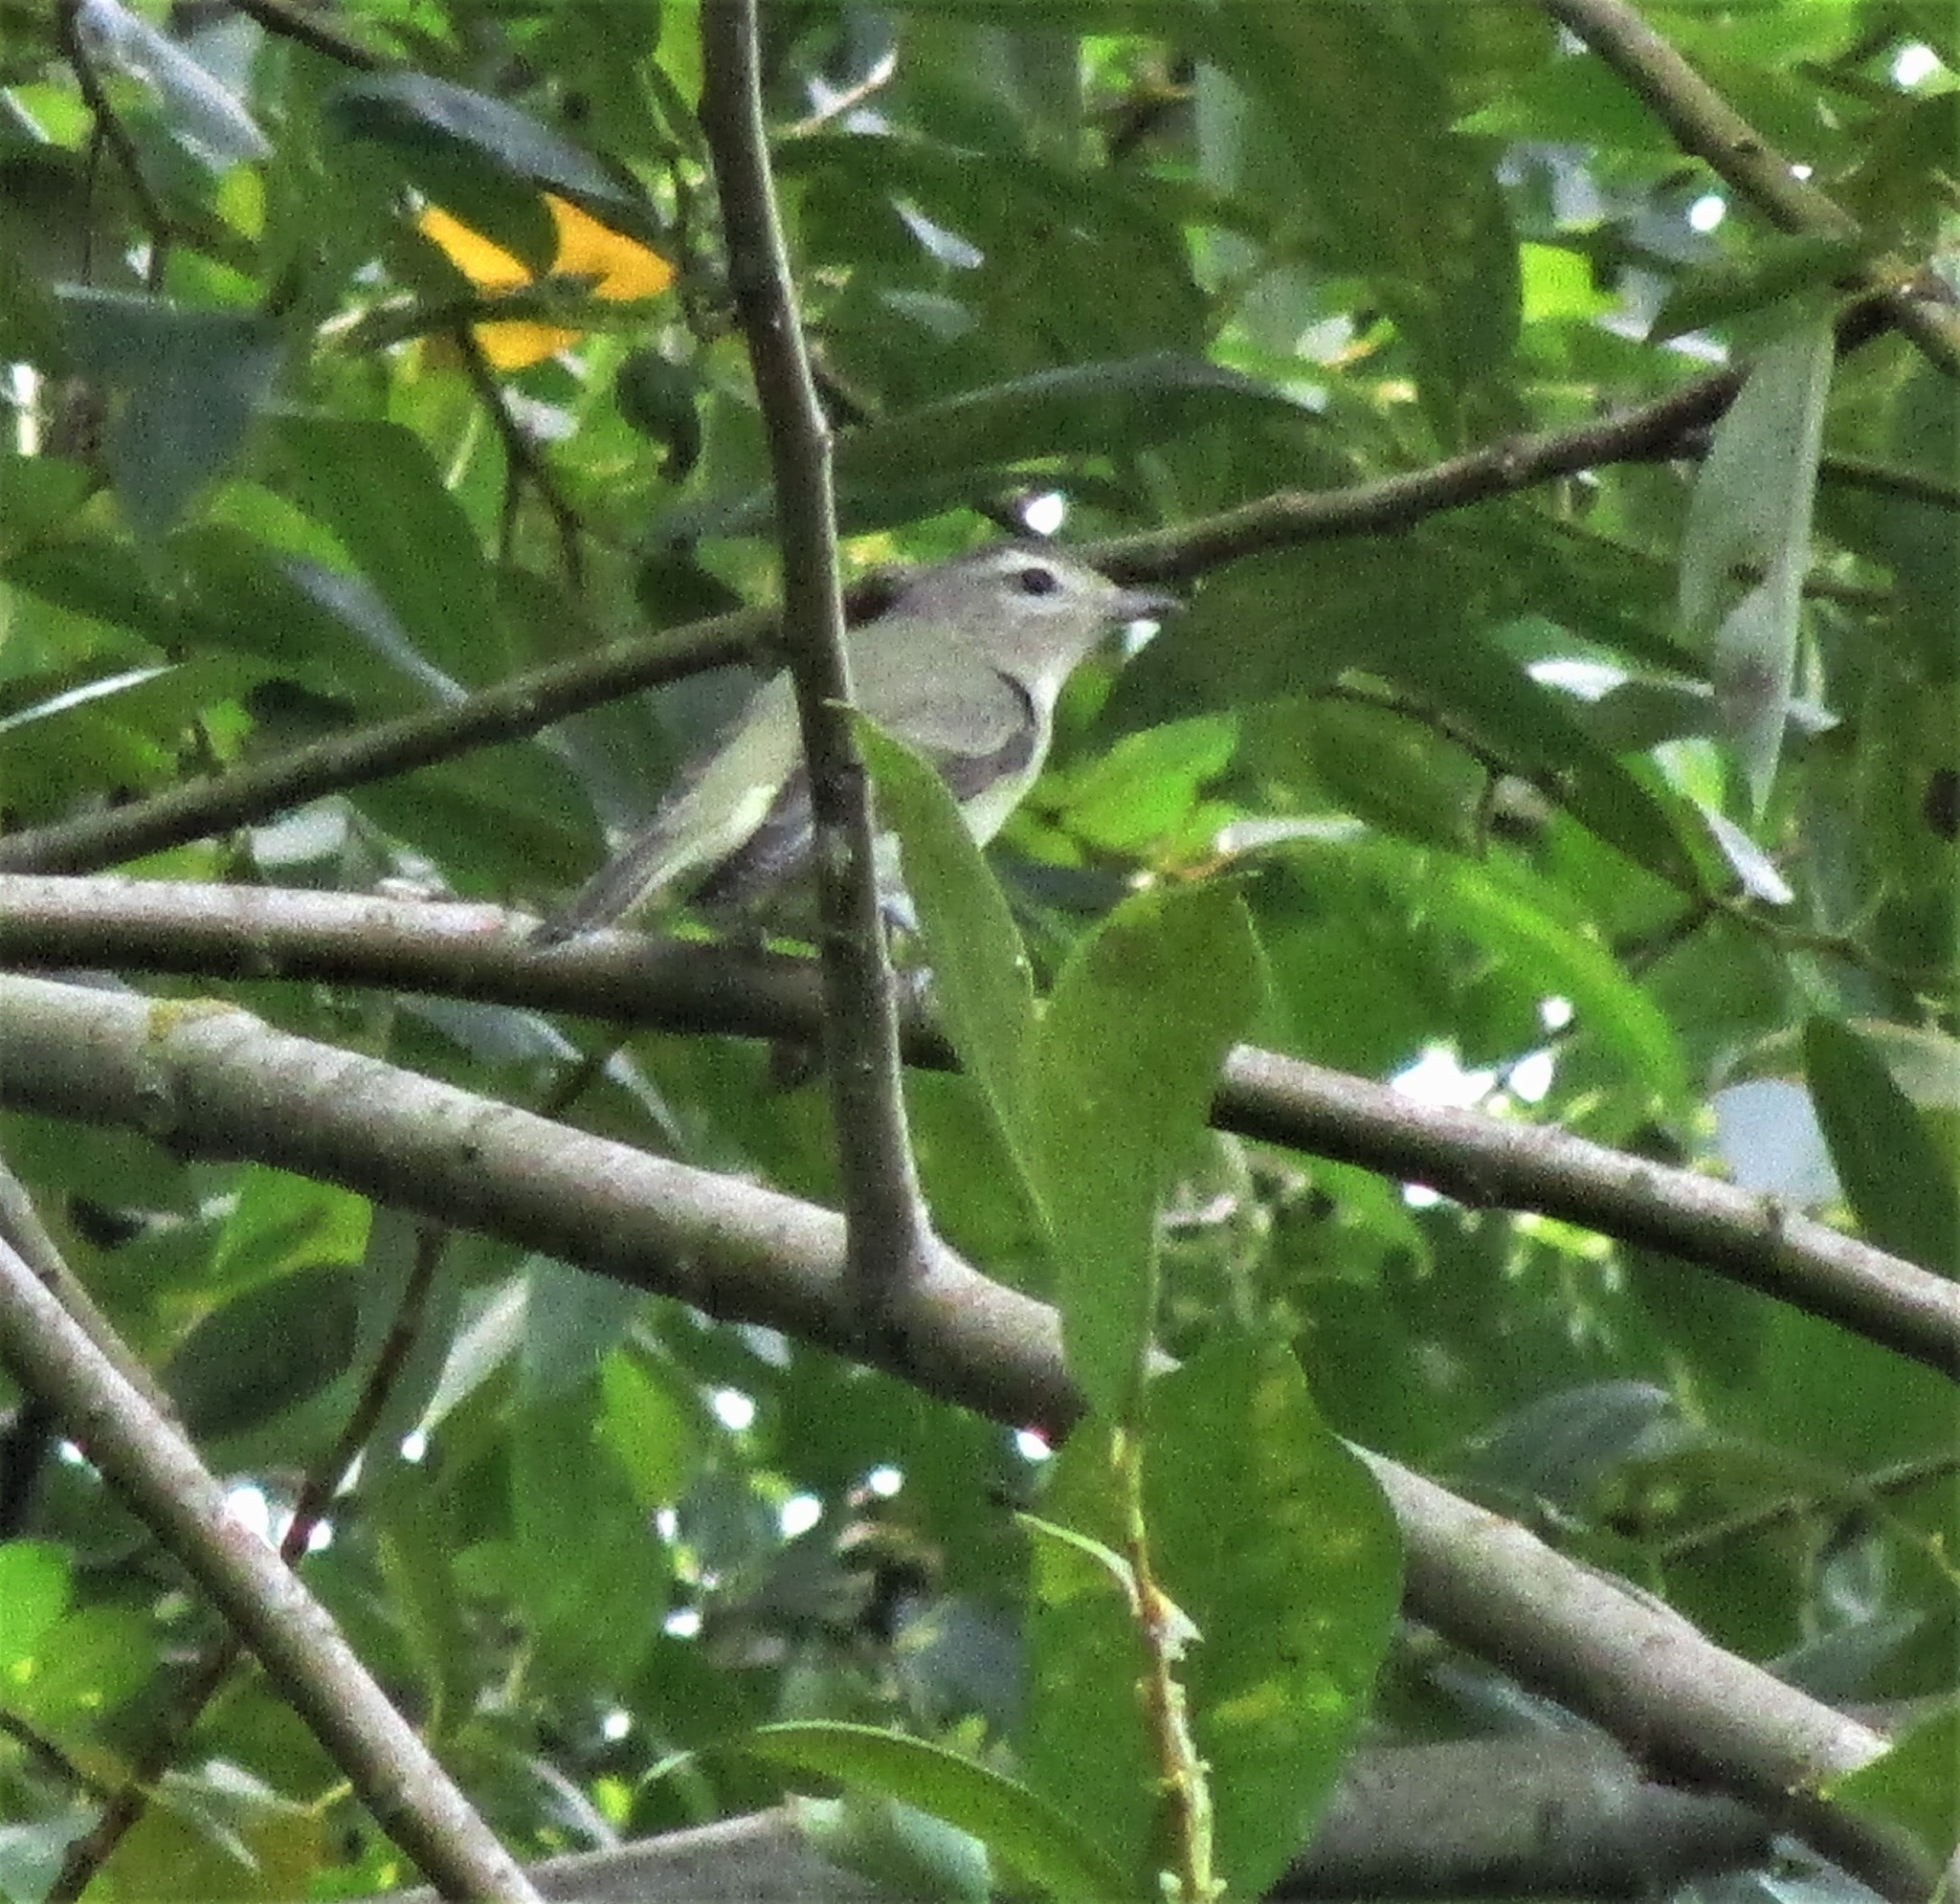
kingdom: Animalia
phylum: Chordata
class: Aves
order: Passeriformes
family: Vireonidae
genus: Vireo
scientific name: Vireo gilvus
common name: Warbling vireo
